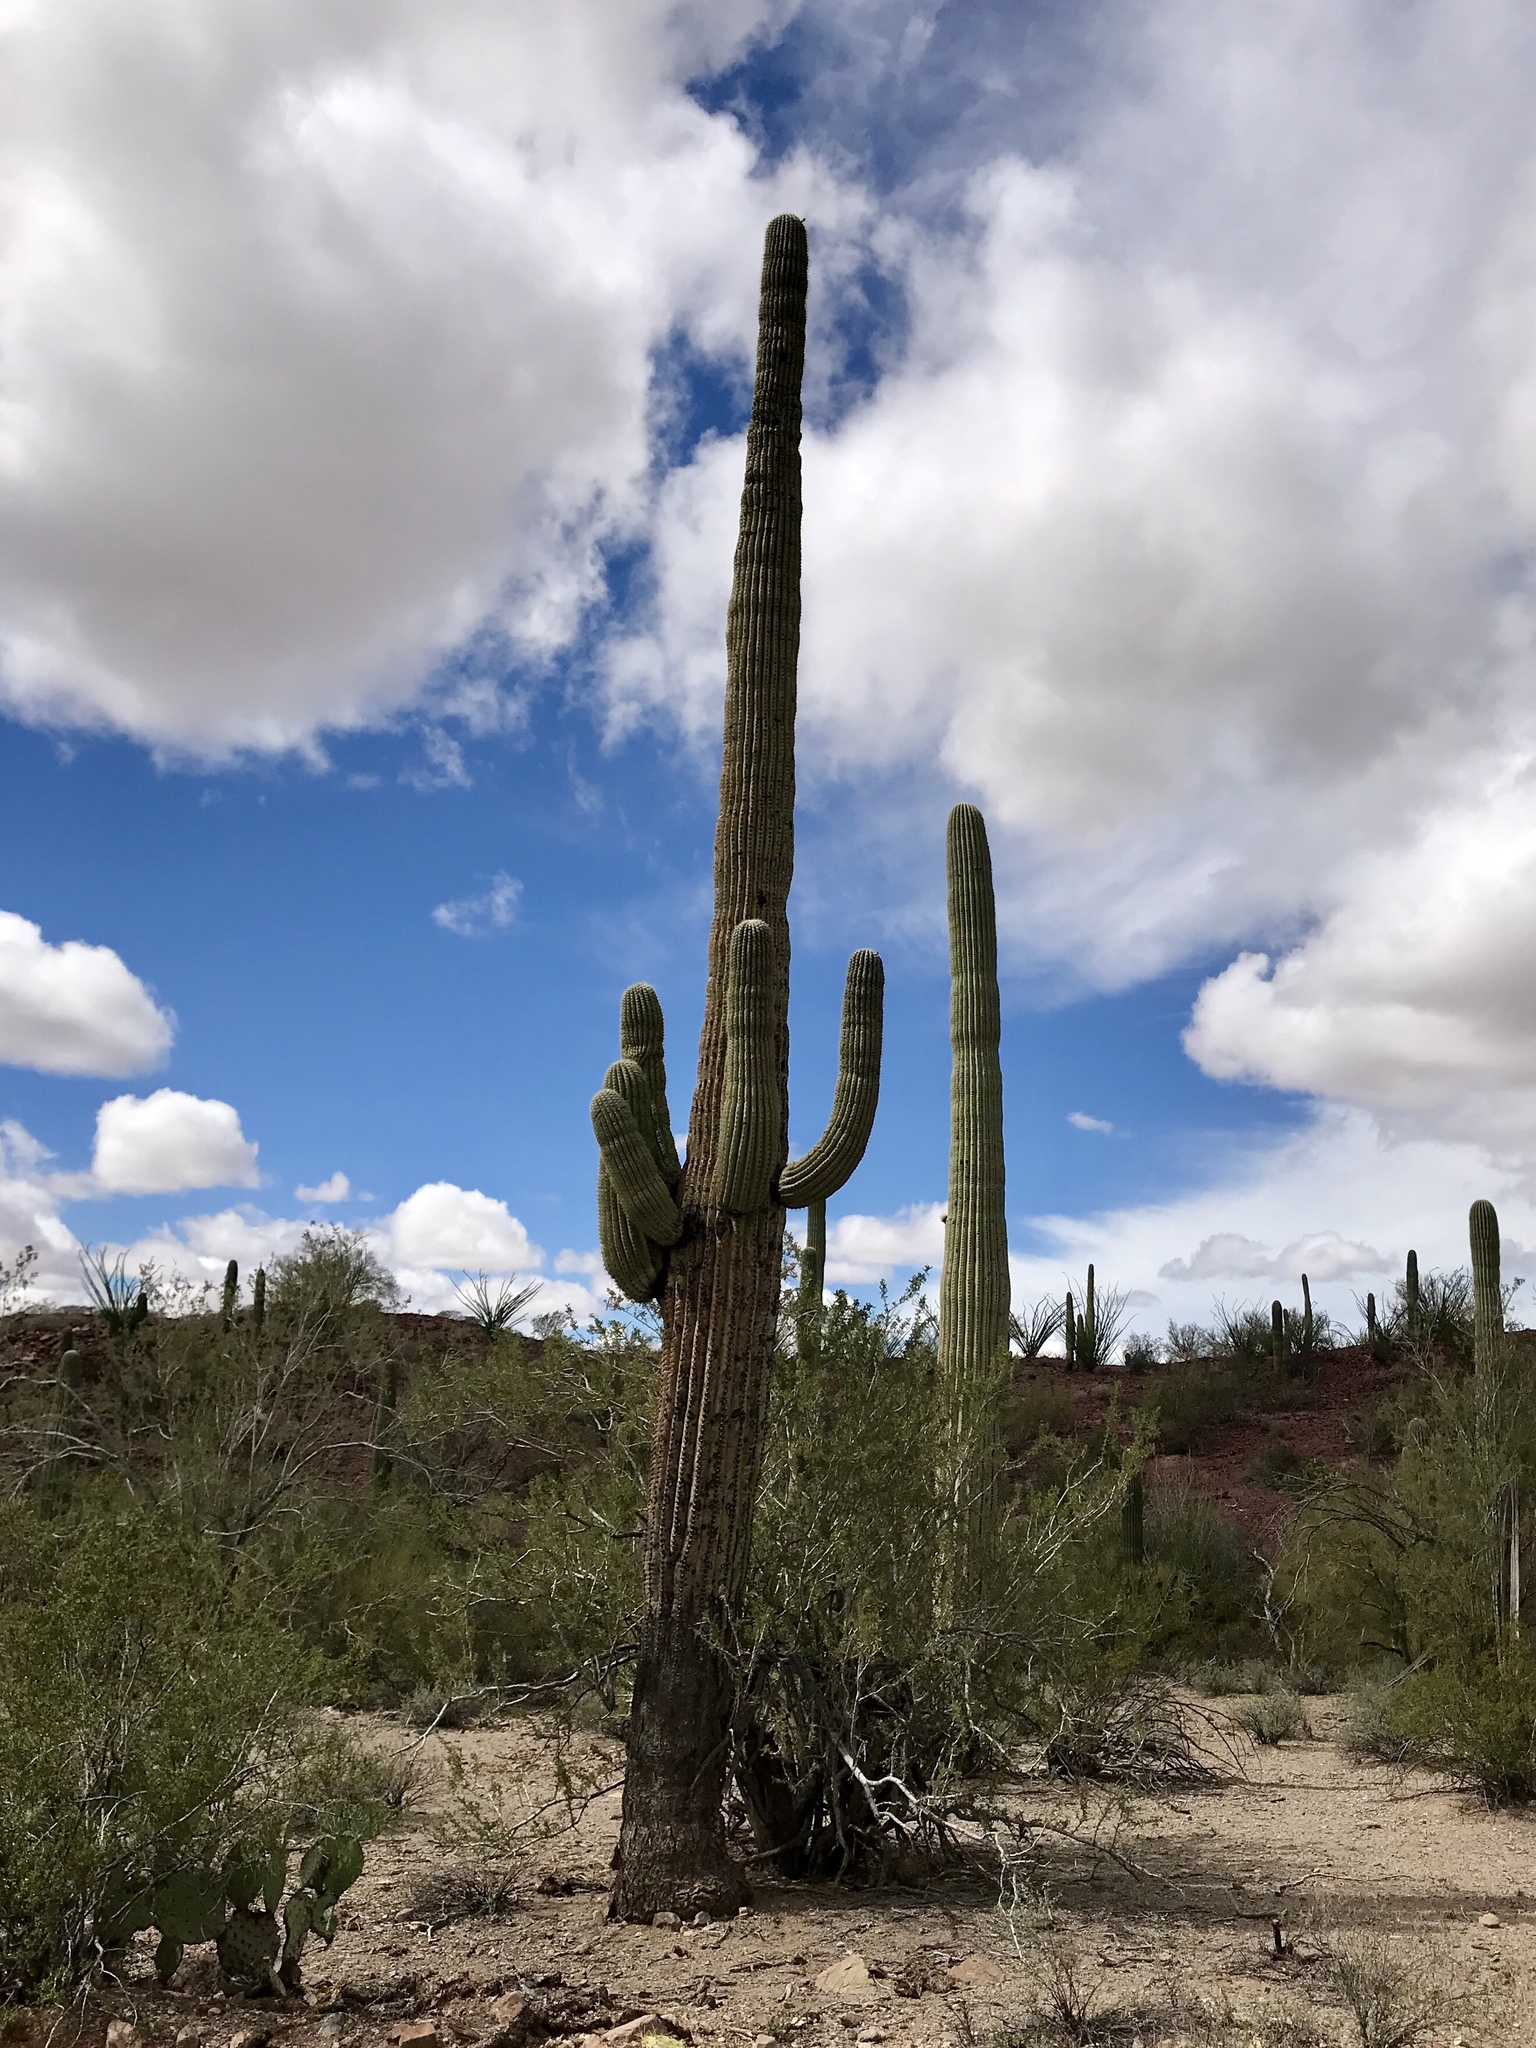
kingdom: Plantae
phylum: Tracheophyta
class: Magnoliopsida
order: Caryophyllales
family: Cactaceae
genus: Carnegiea
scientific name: Carnegiea gigantea
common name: Saguaro
